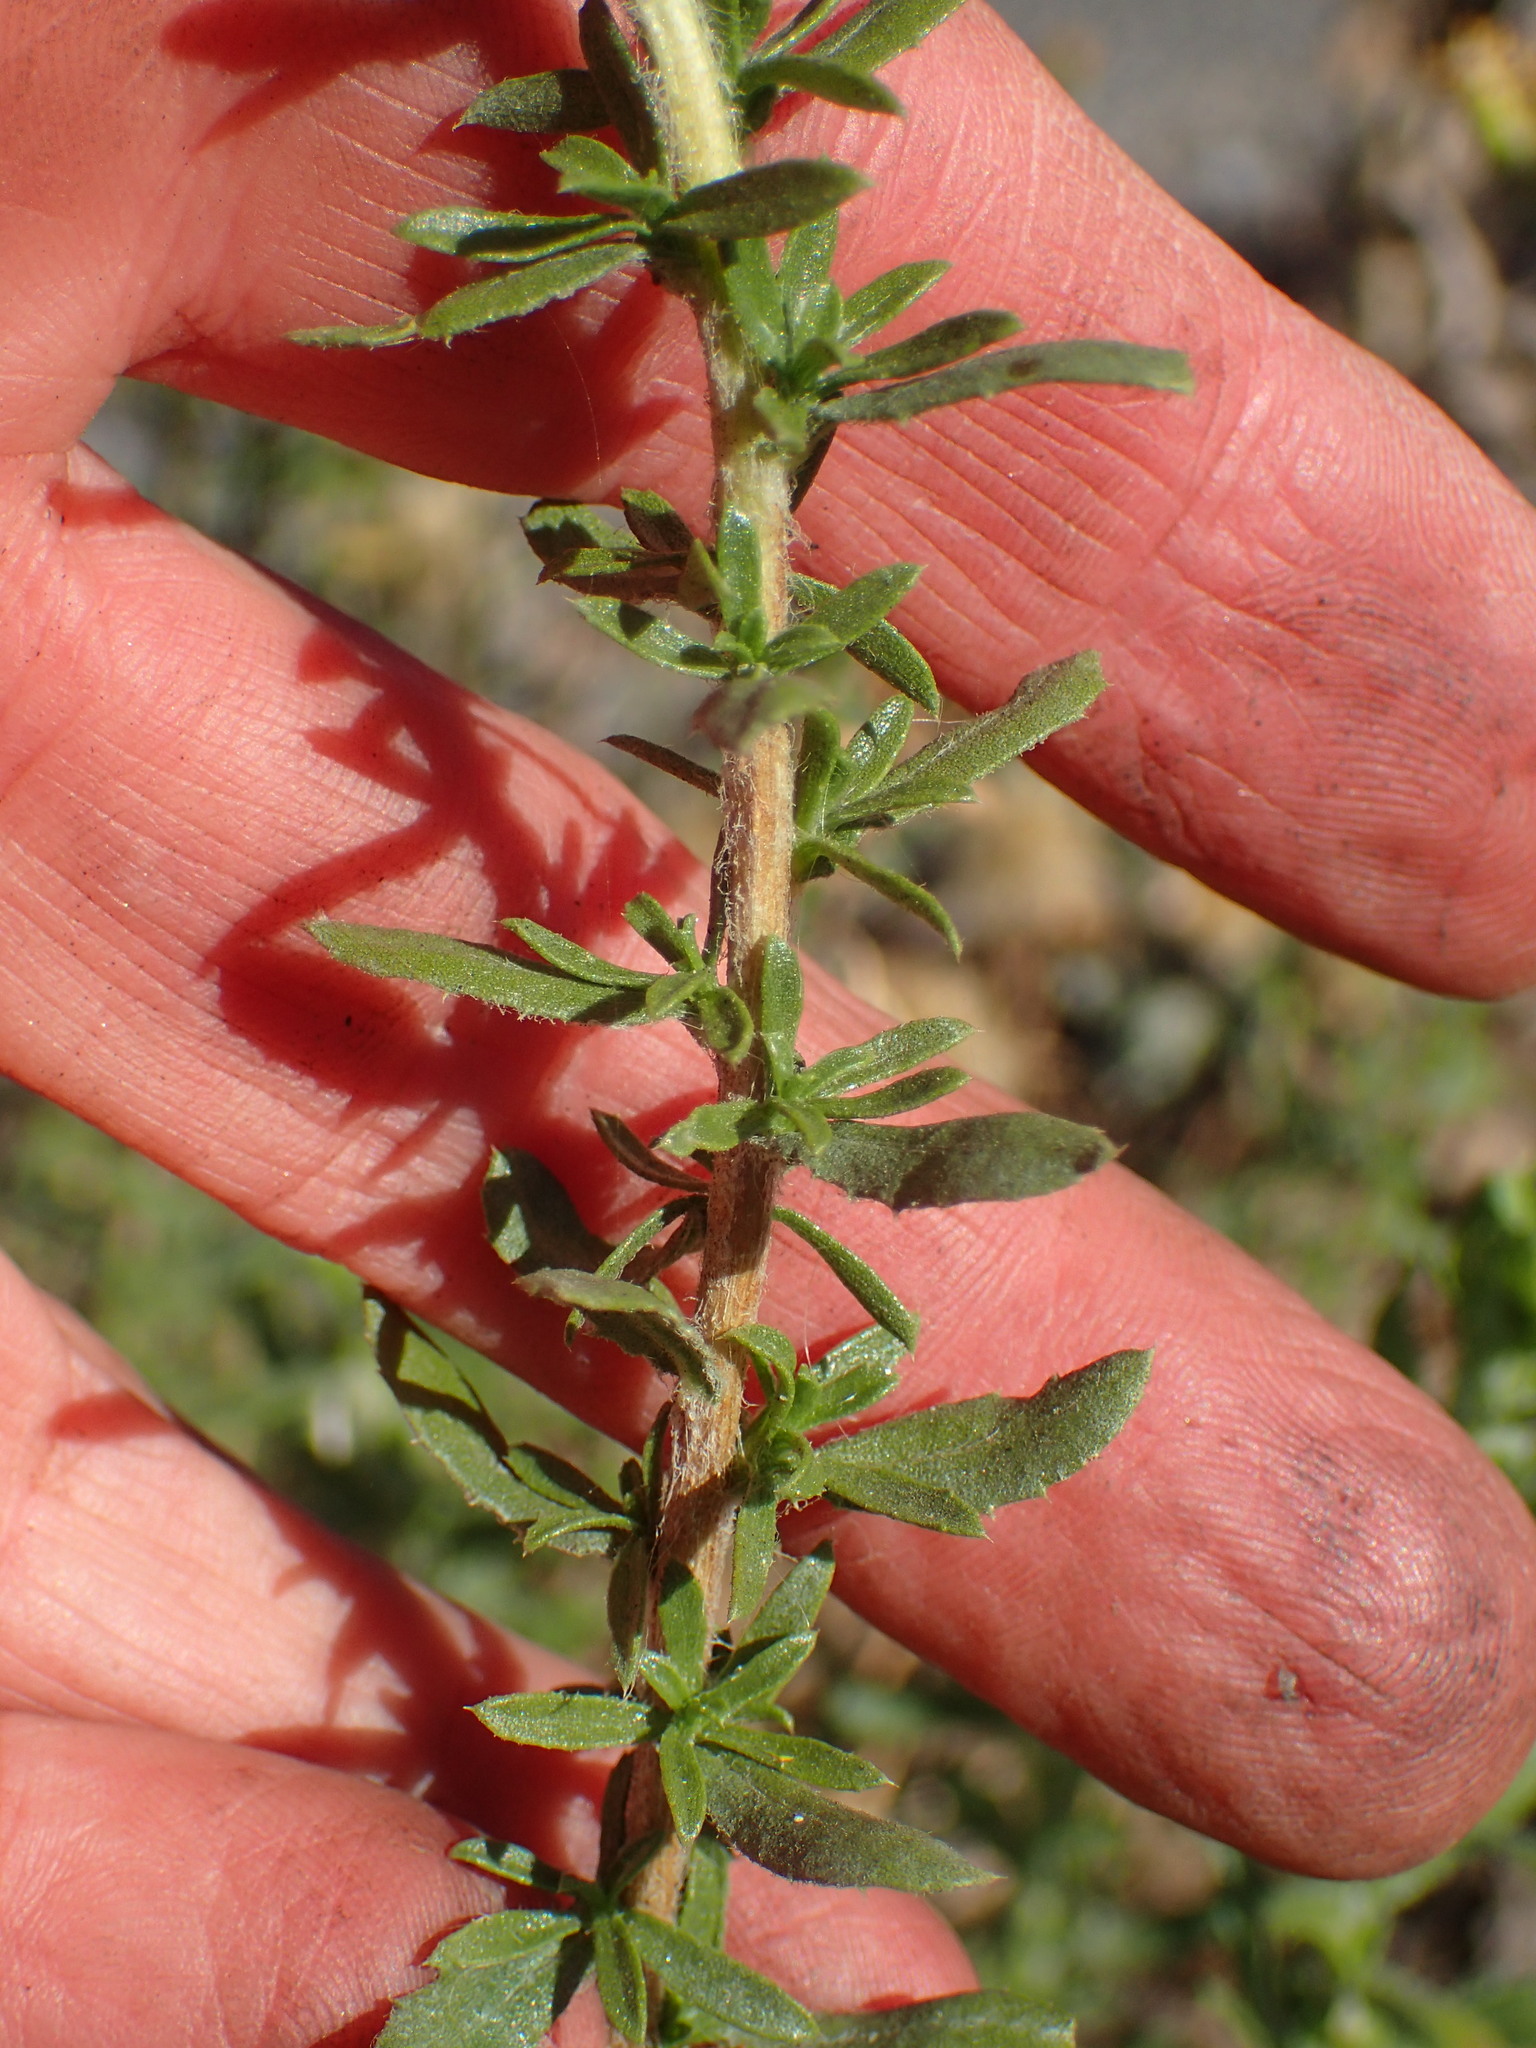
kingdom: Plantae
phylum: Tracheophyta
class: Magnoliopsida
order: Asterales
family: Asteraceae
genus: Isocoma
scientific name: Isocoma menziesii
